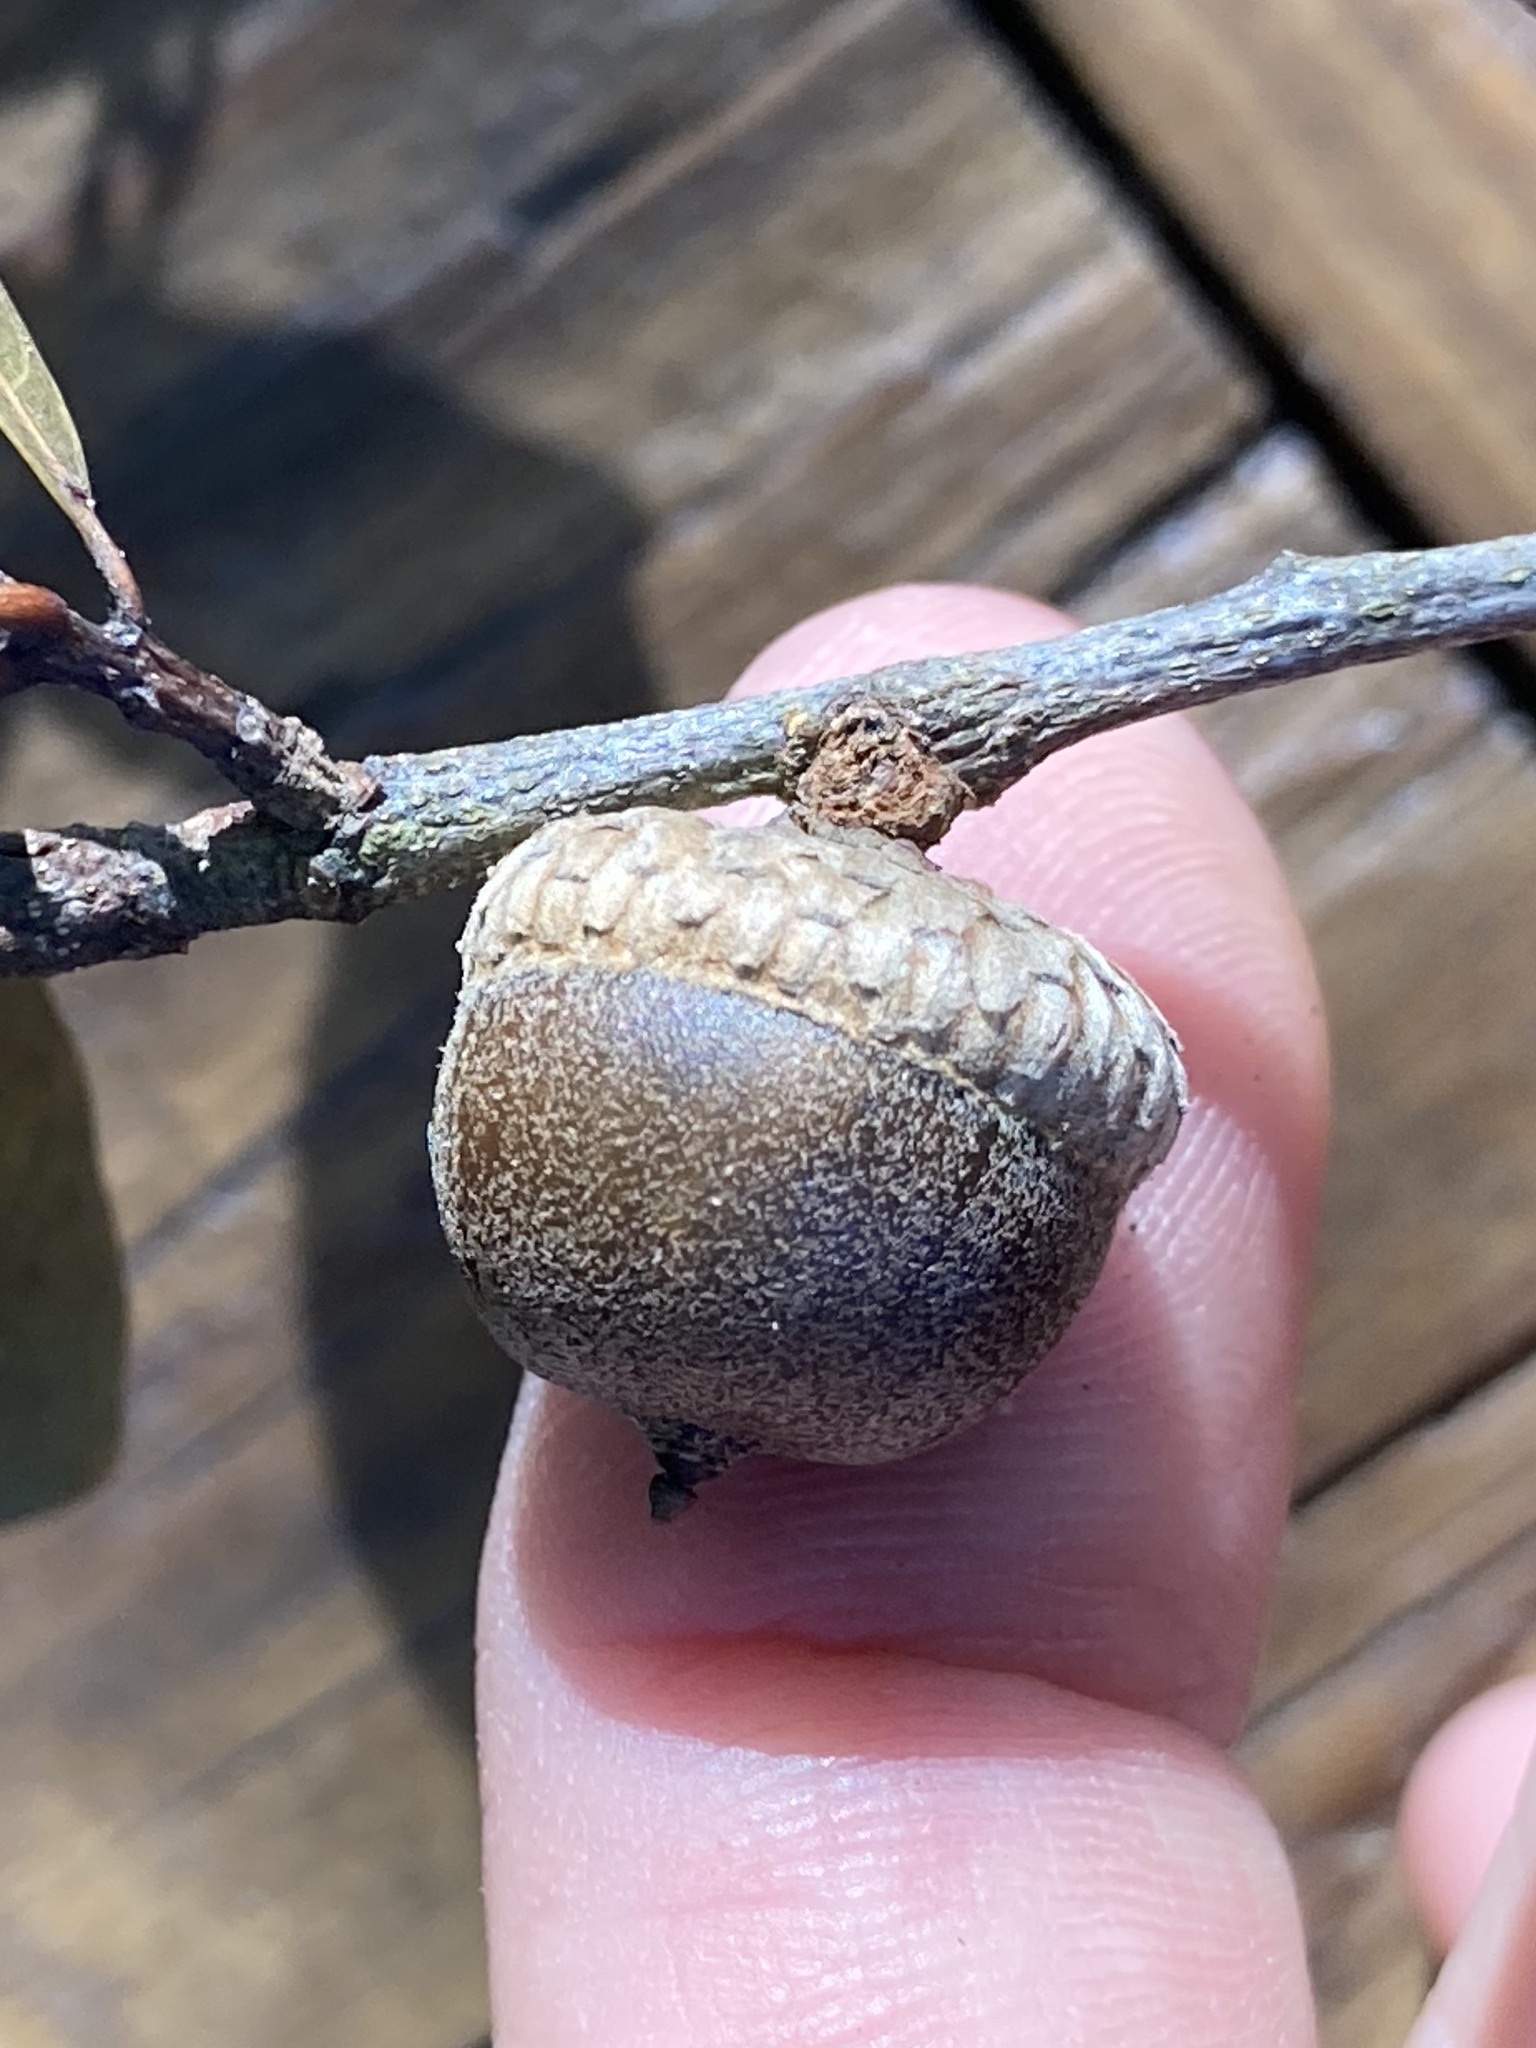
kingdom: Plantae
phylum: Tracheophyta
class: Magnoliopsida
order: Fagales
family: Fagaceae
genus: Quercus
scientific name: Quercus nigra
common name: Water oak
